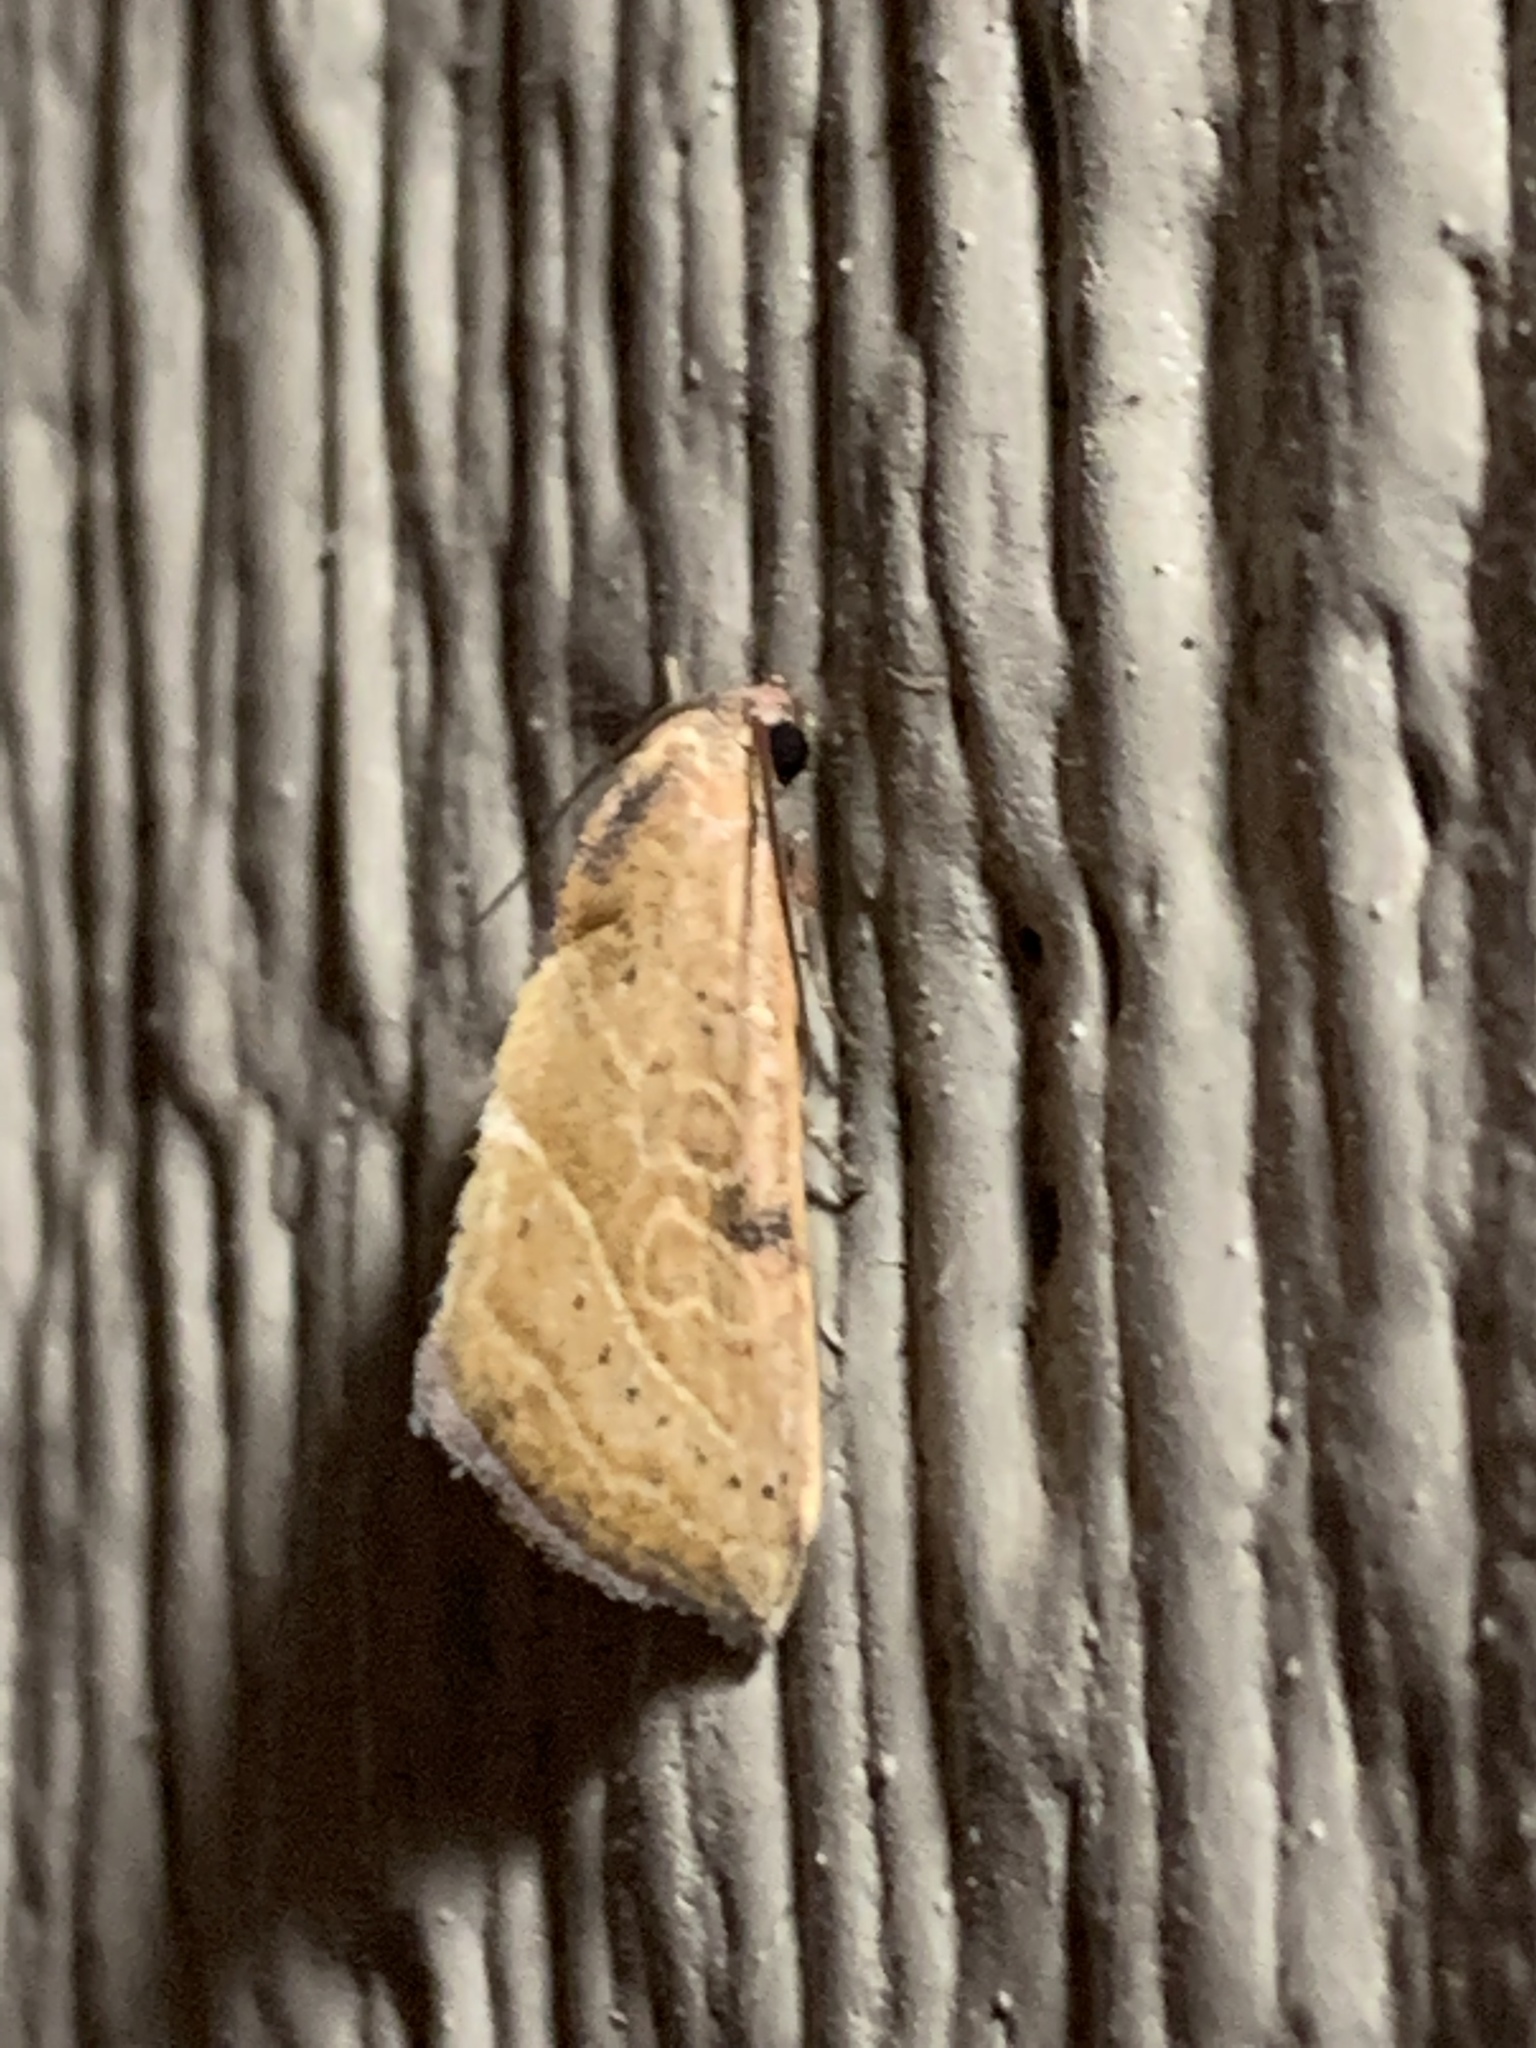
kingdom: Animalia
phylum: Arthropoda
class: Insecta
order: Lepidoptera
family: Noctuidae
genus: Galgula
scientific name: Galgula partita
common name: Wedgeling
